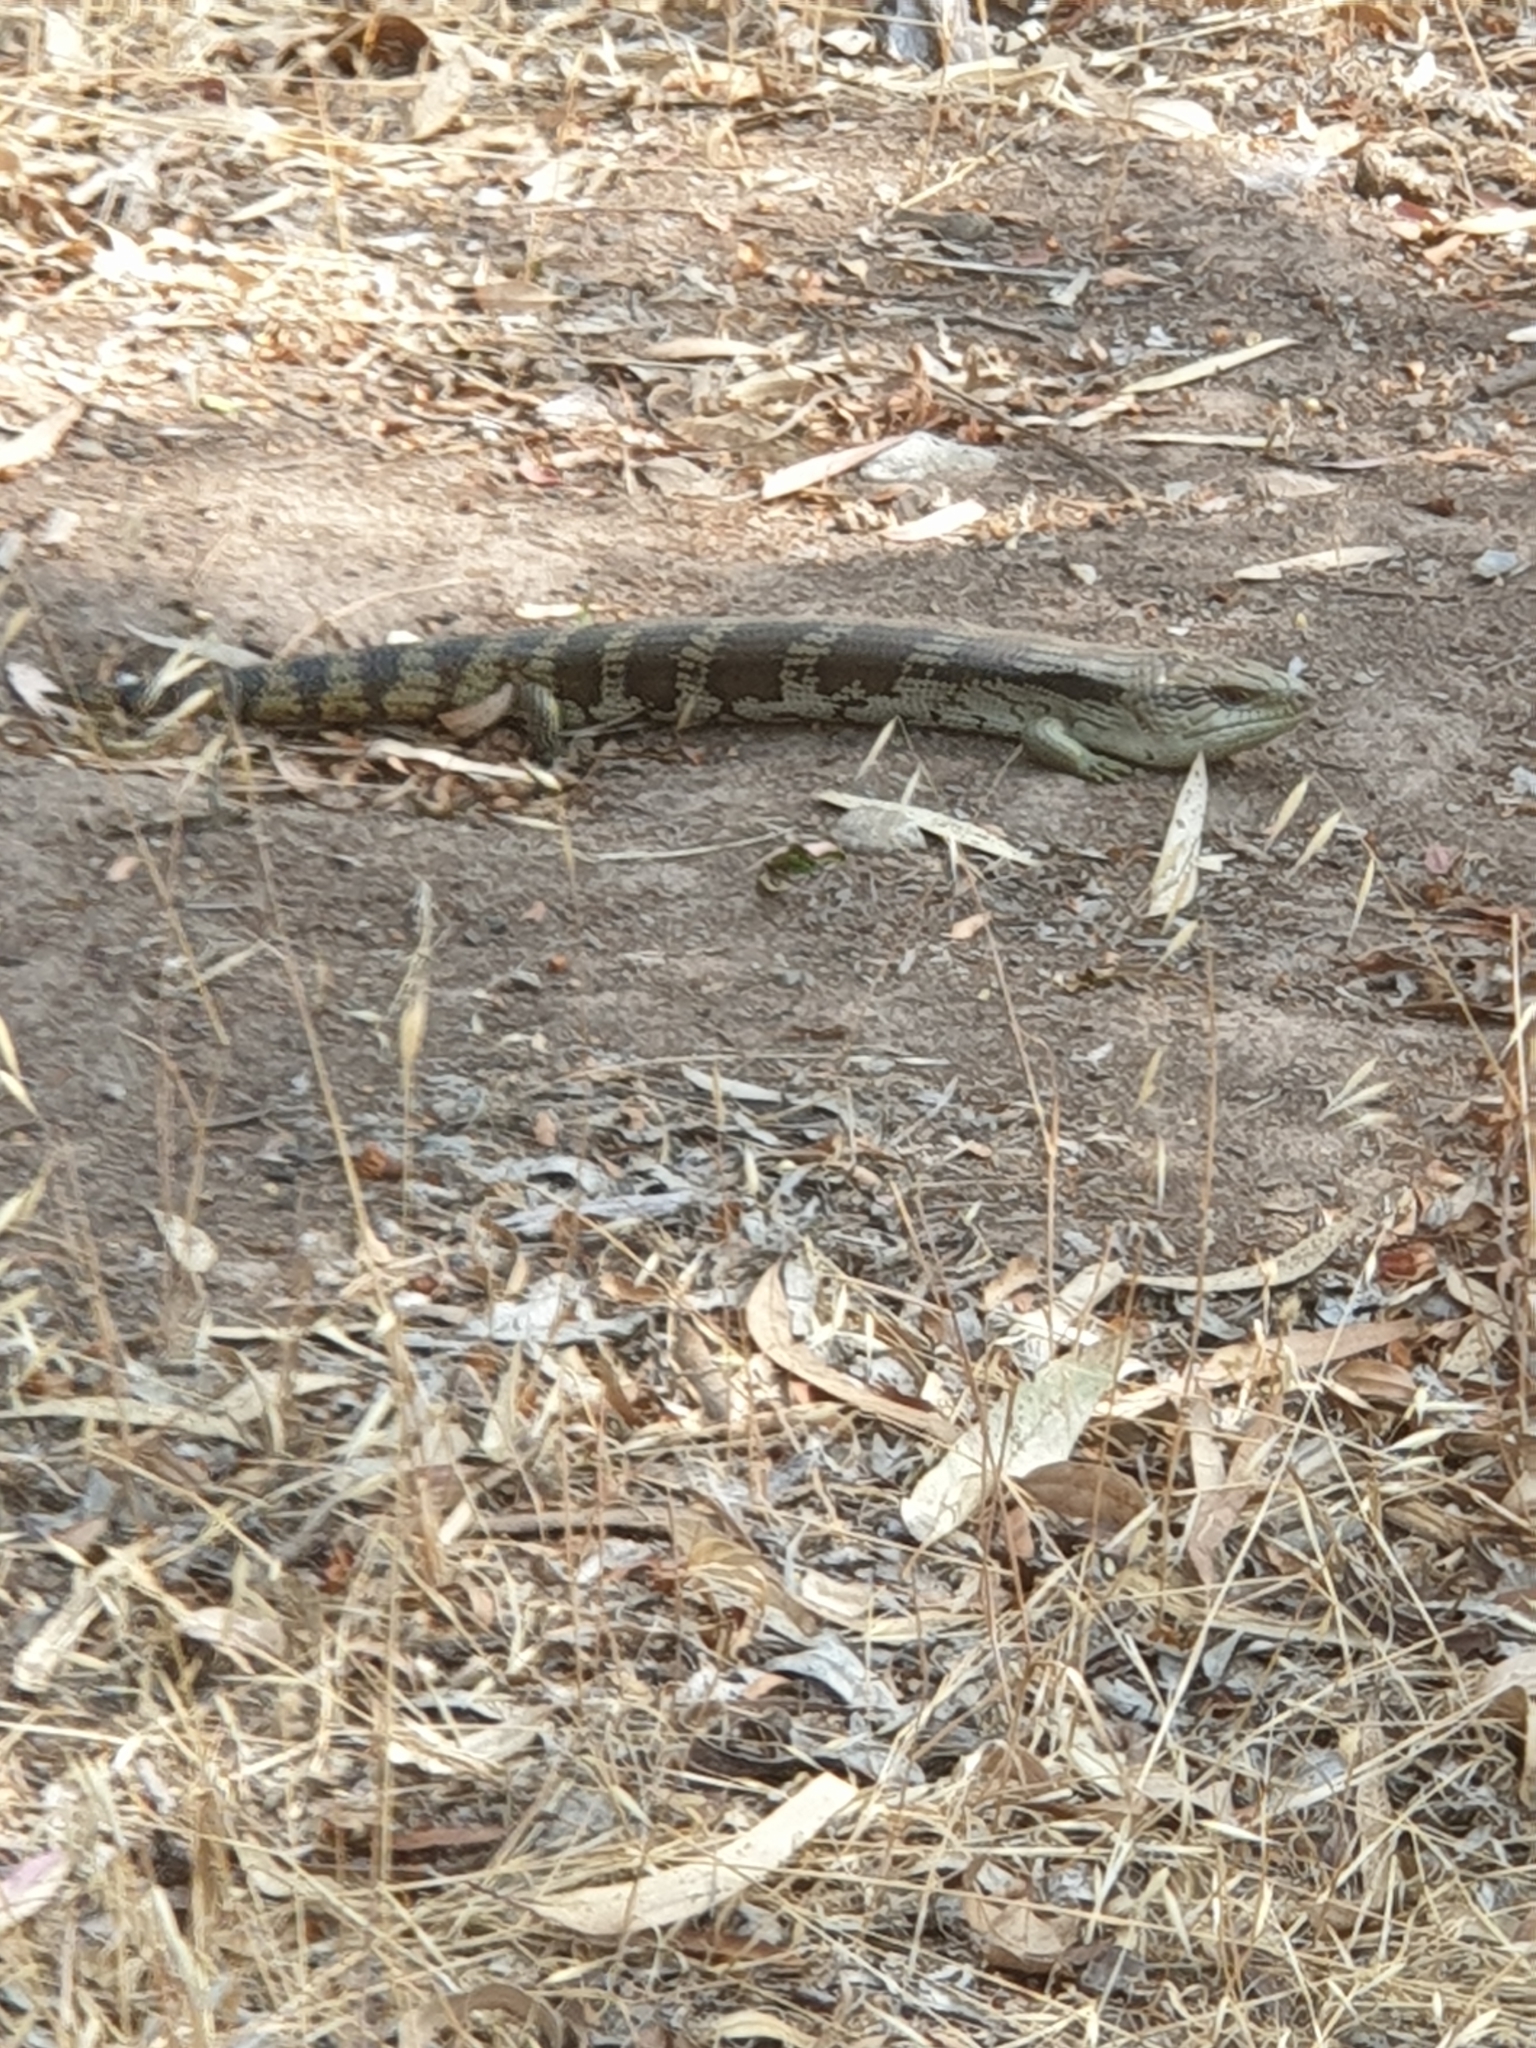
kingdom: Animalia
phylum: Chordata
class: Squamata
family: Scincidae
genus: Tiliqua
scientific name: Tiliqua scincoides
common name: Common bluetongue
